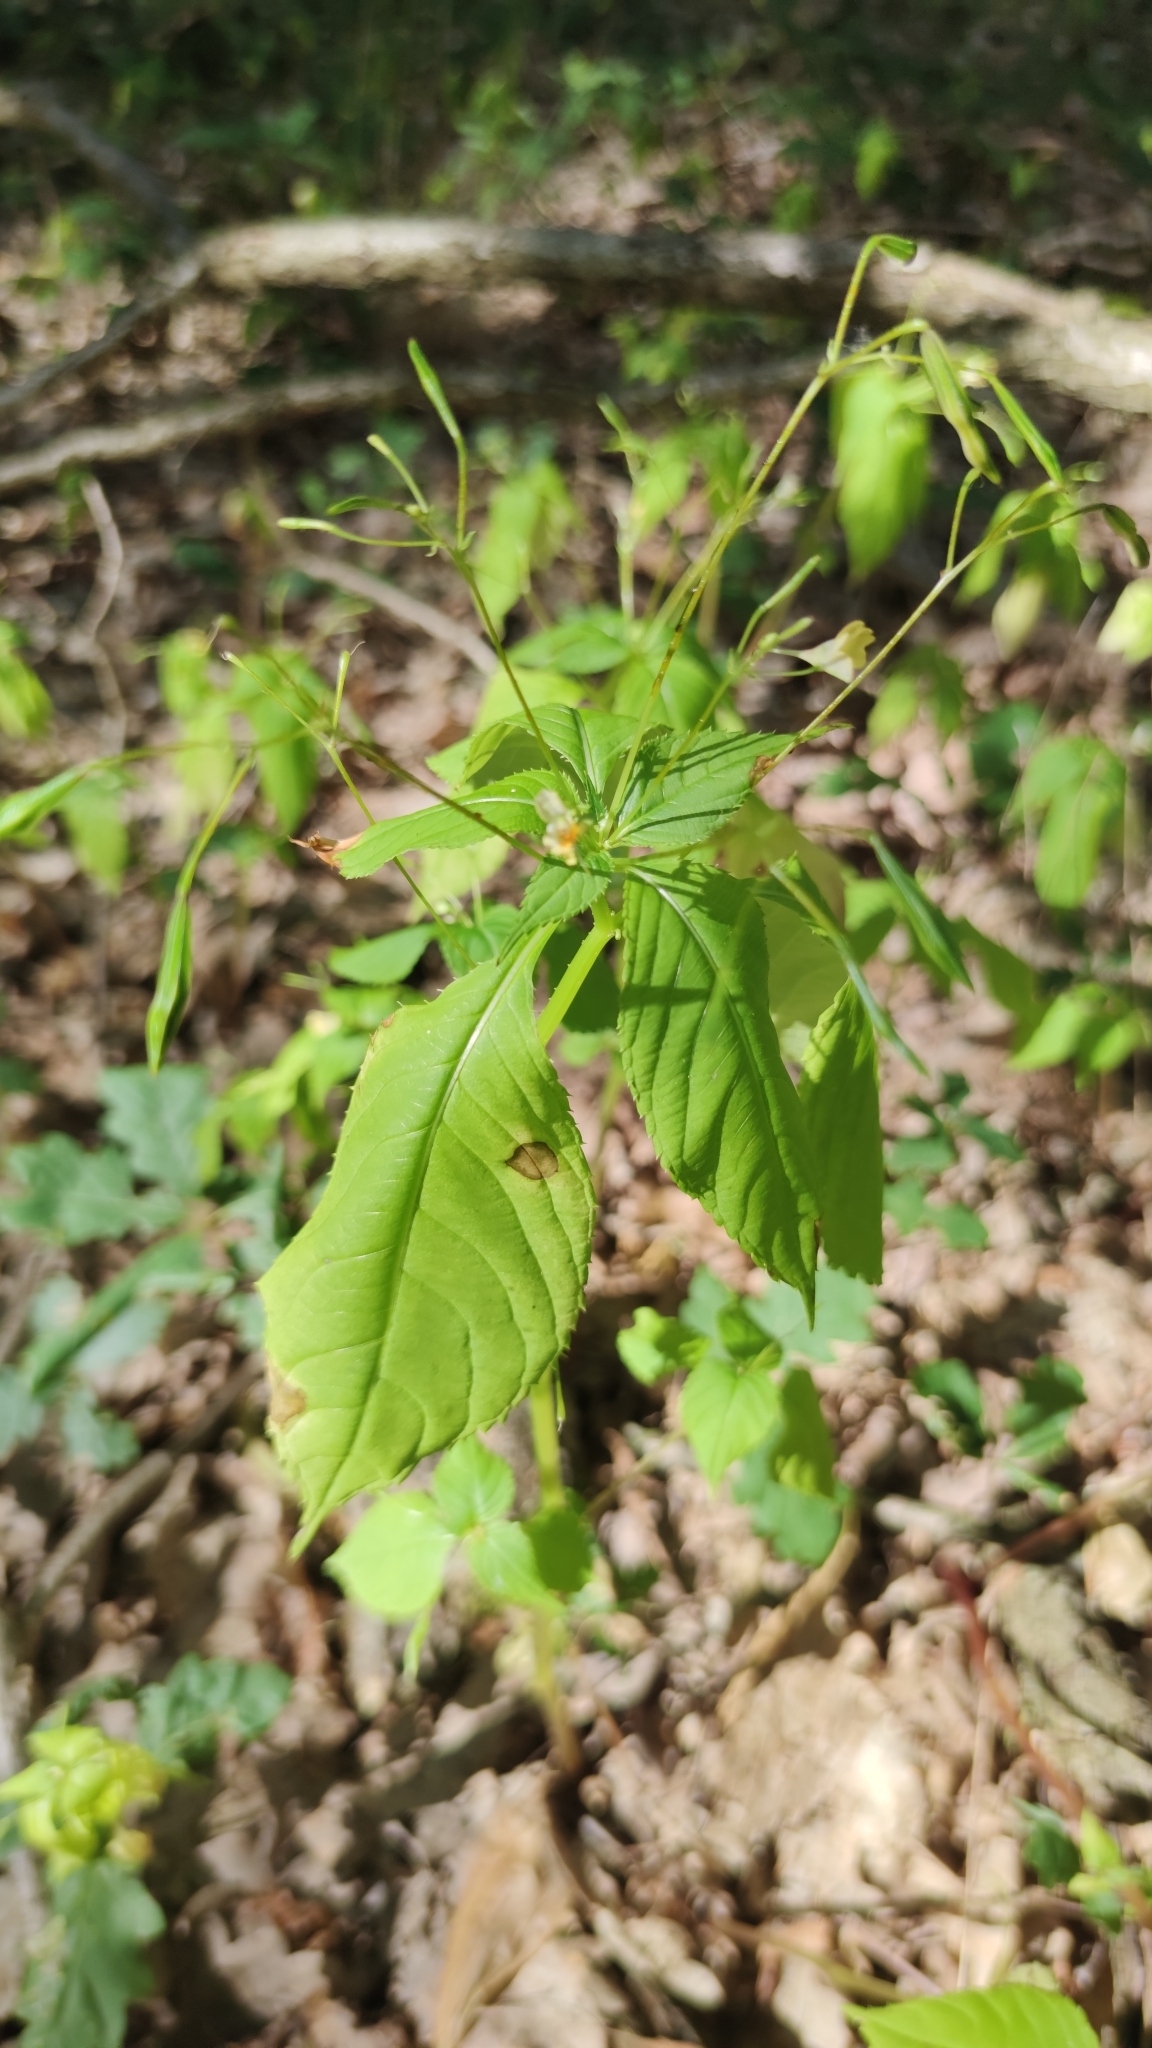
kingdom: Plantae
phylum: Tracheophyta
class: Magnoliopsida
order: Ericales
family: Balsaminaceae
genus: Impatiens
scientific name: Impatiens parviflora
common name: Small balsam
